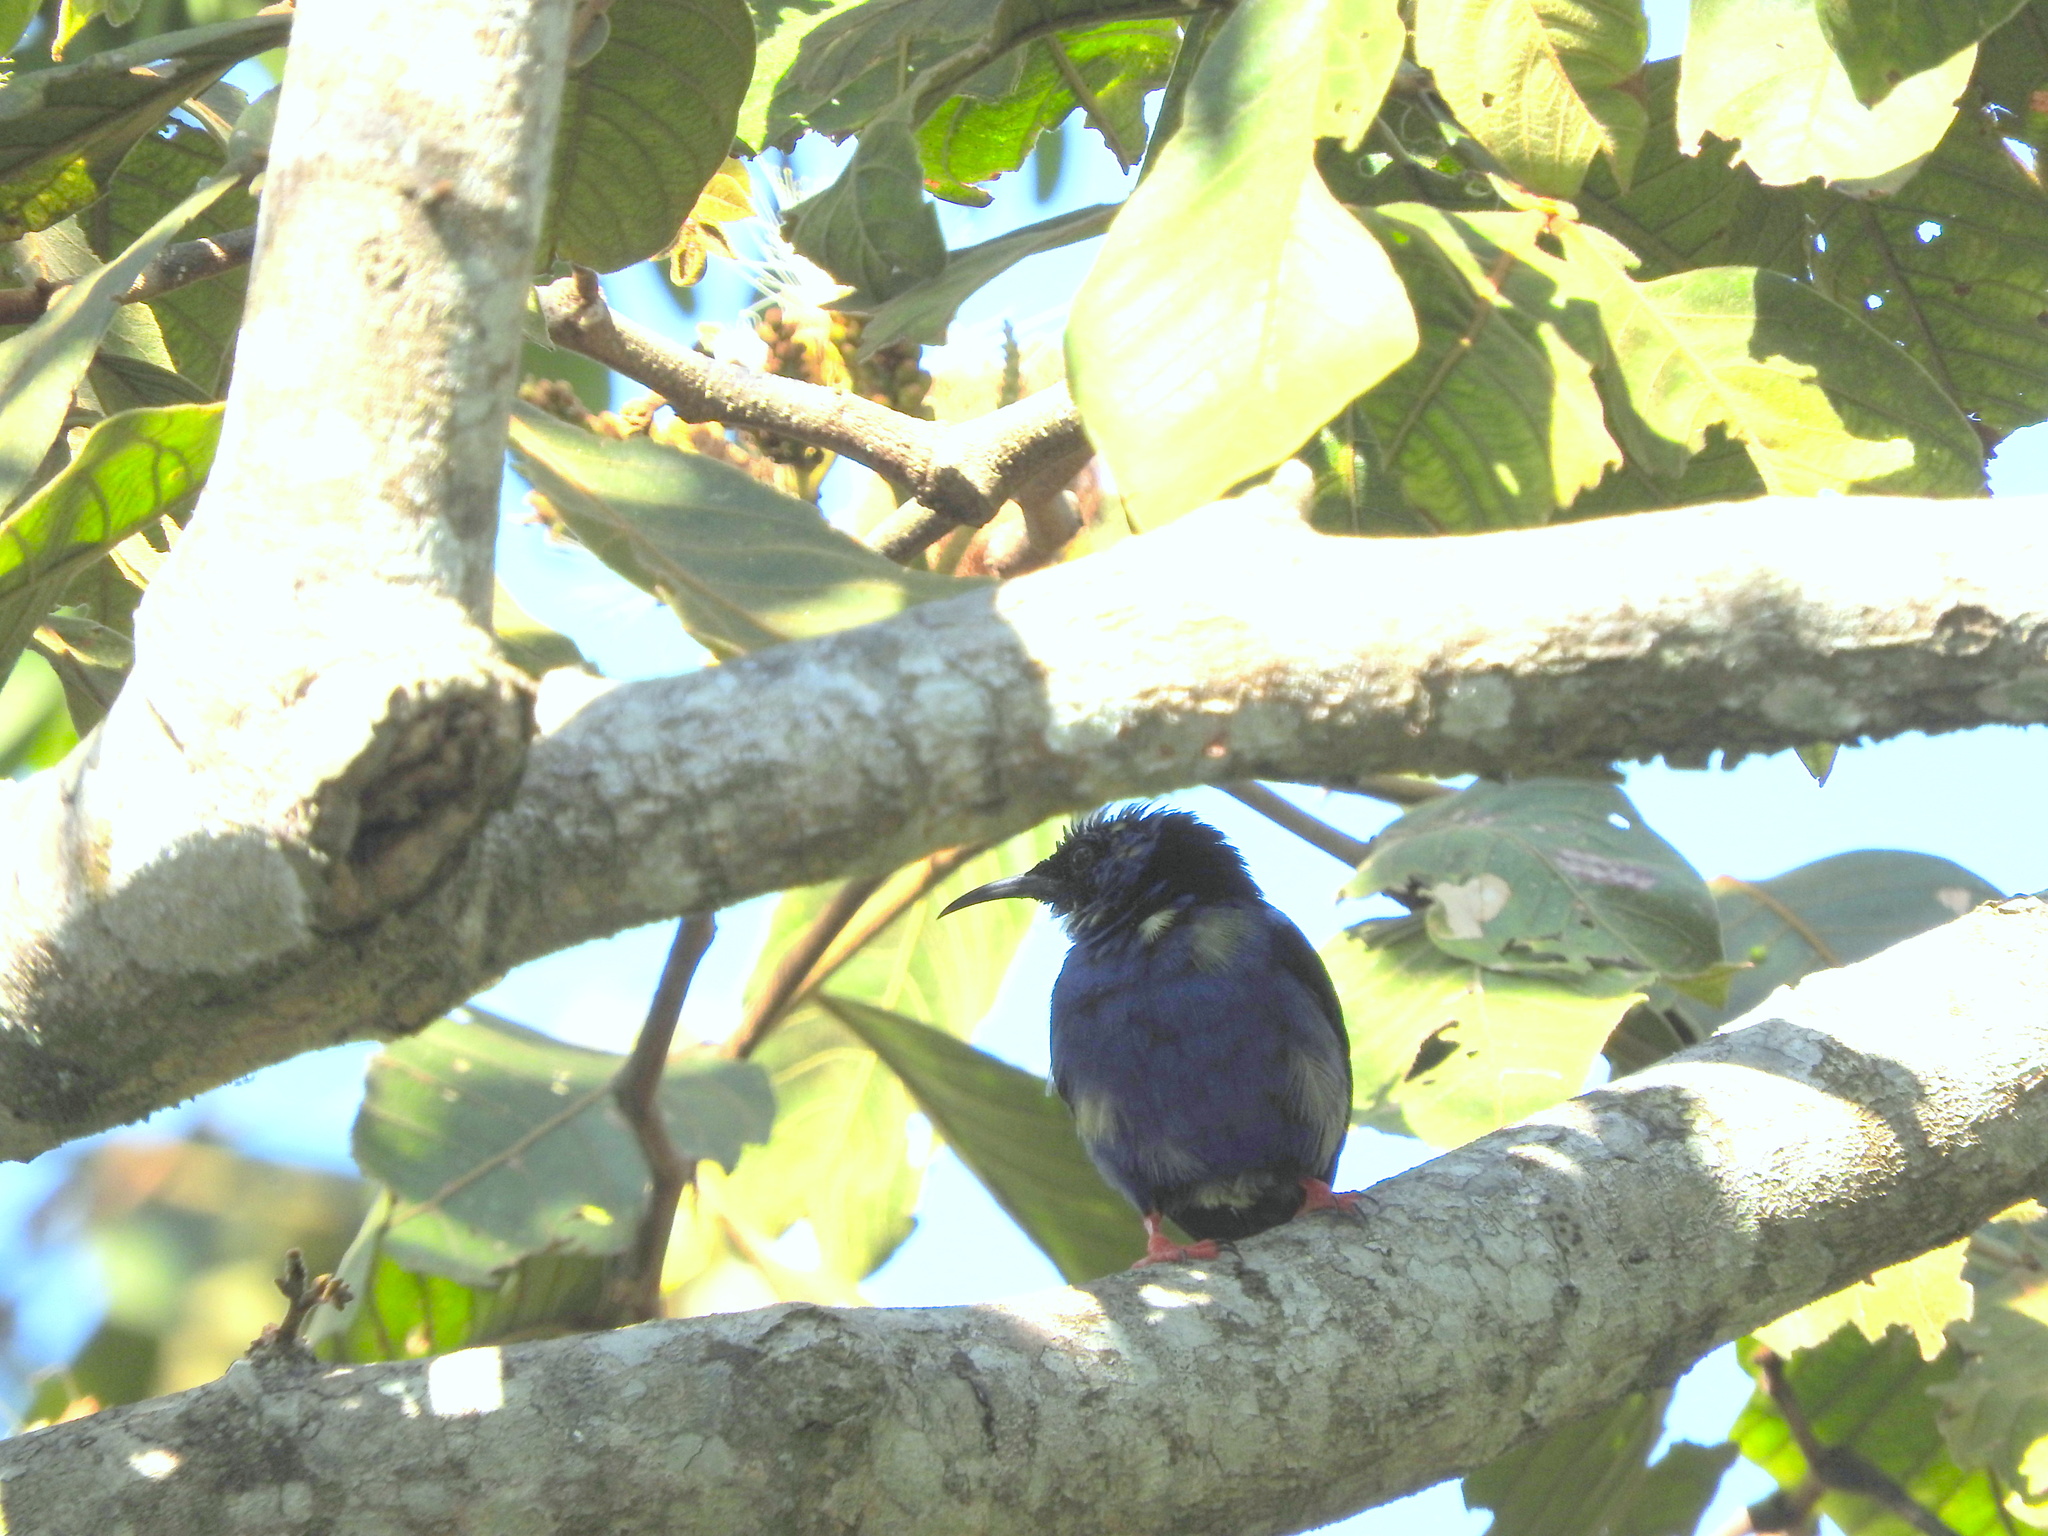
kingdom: Animalia
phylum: Chordata
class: Aves
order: Passeriformes
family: Thraupidae
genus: Cyanerpes
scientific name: Cyanerpes cyaneus
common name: Red-legged honeycreeper
